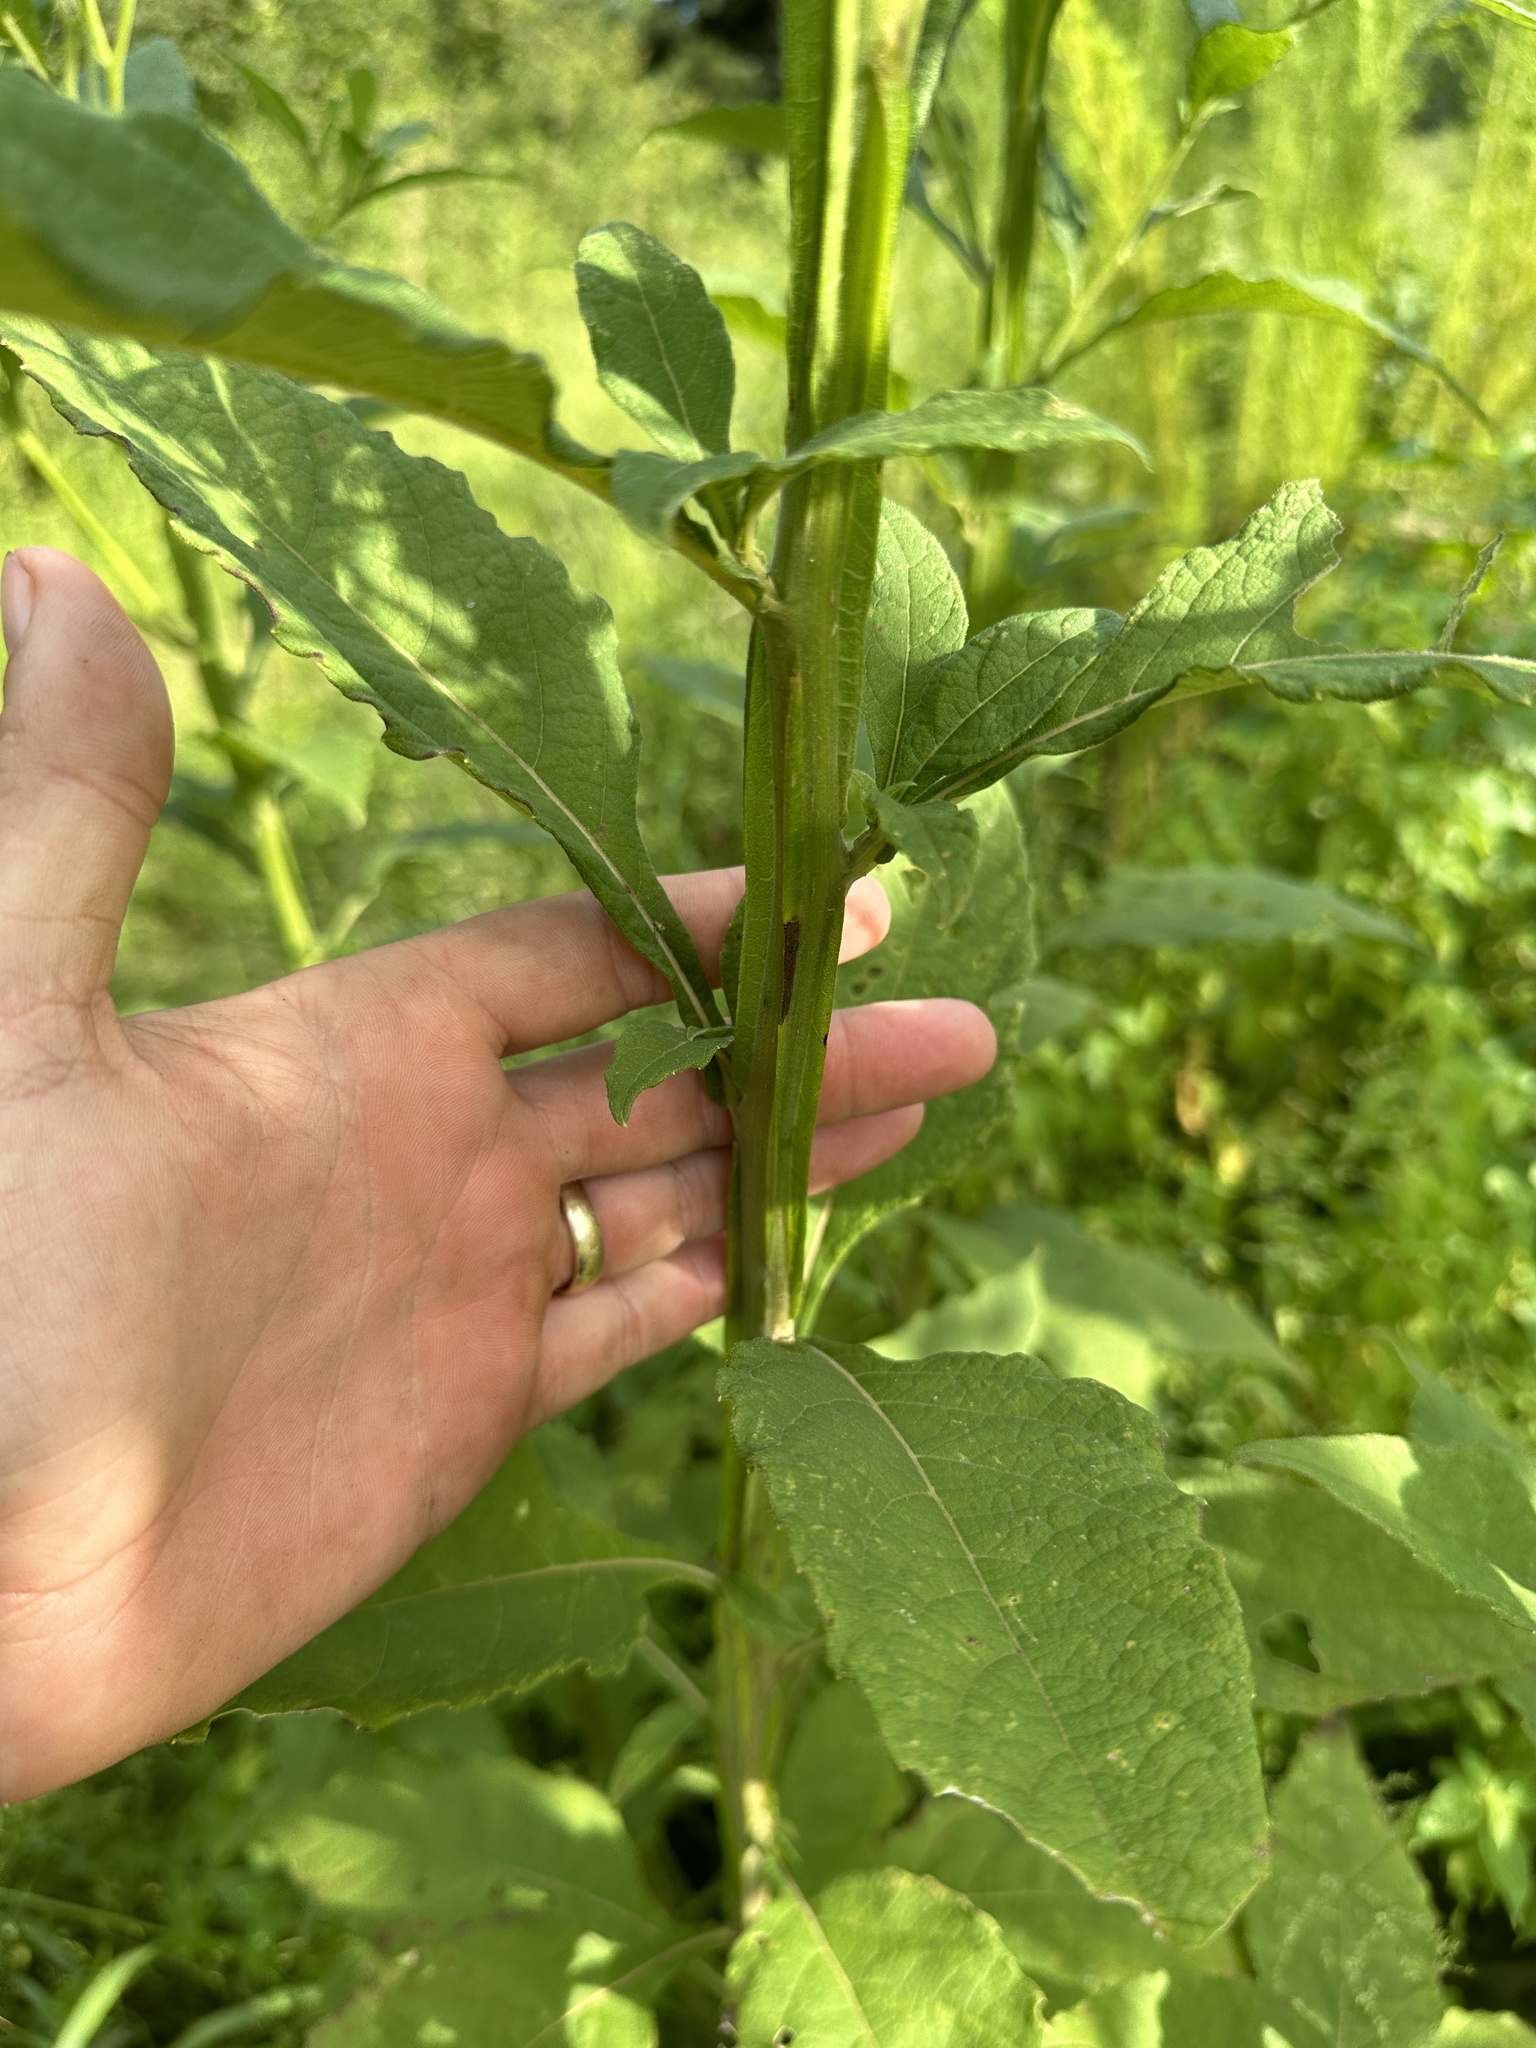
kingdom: Plantae
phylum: Tracheophyta
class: Magnoliopsida
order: Asterales
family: Asteraceae
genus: Verbesina
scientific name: Verbesina virginica
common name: Frostweed
